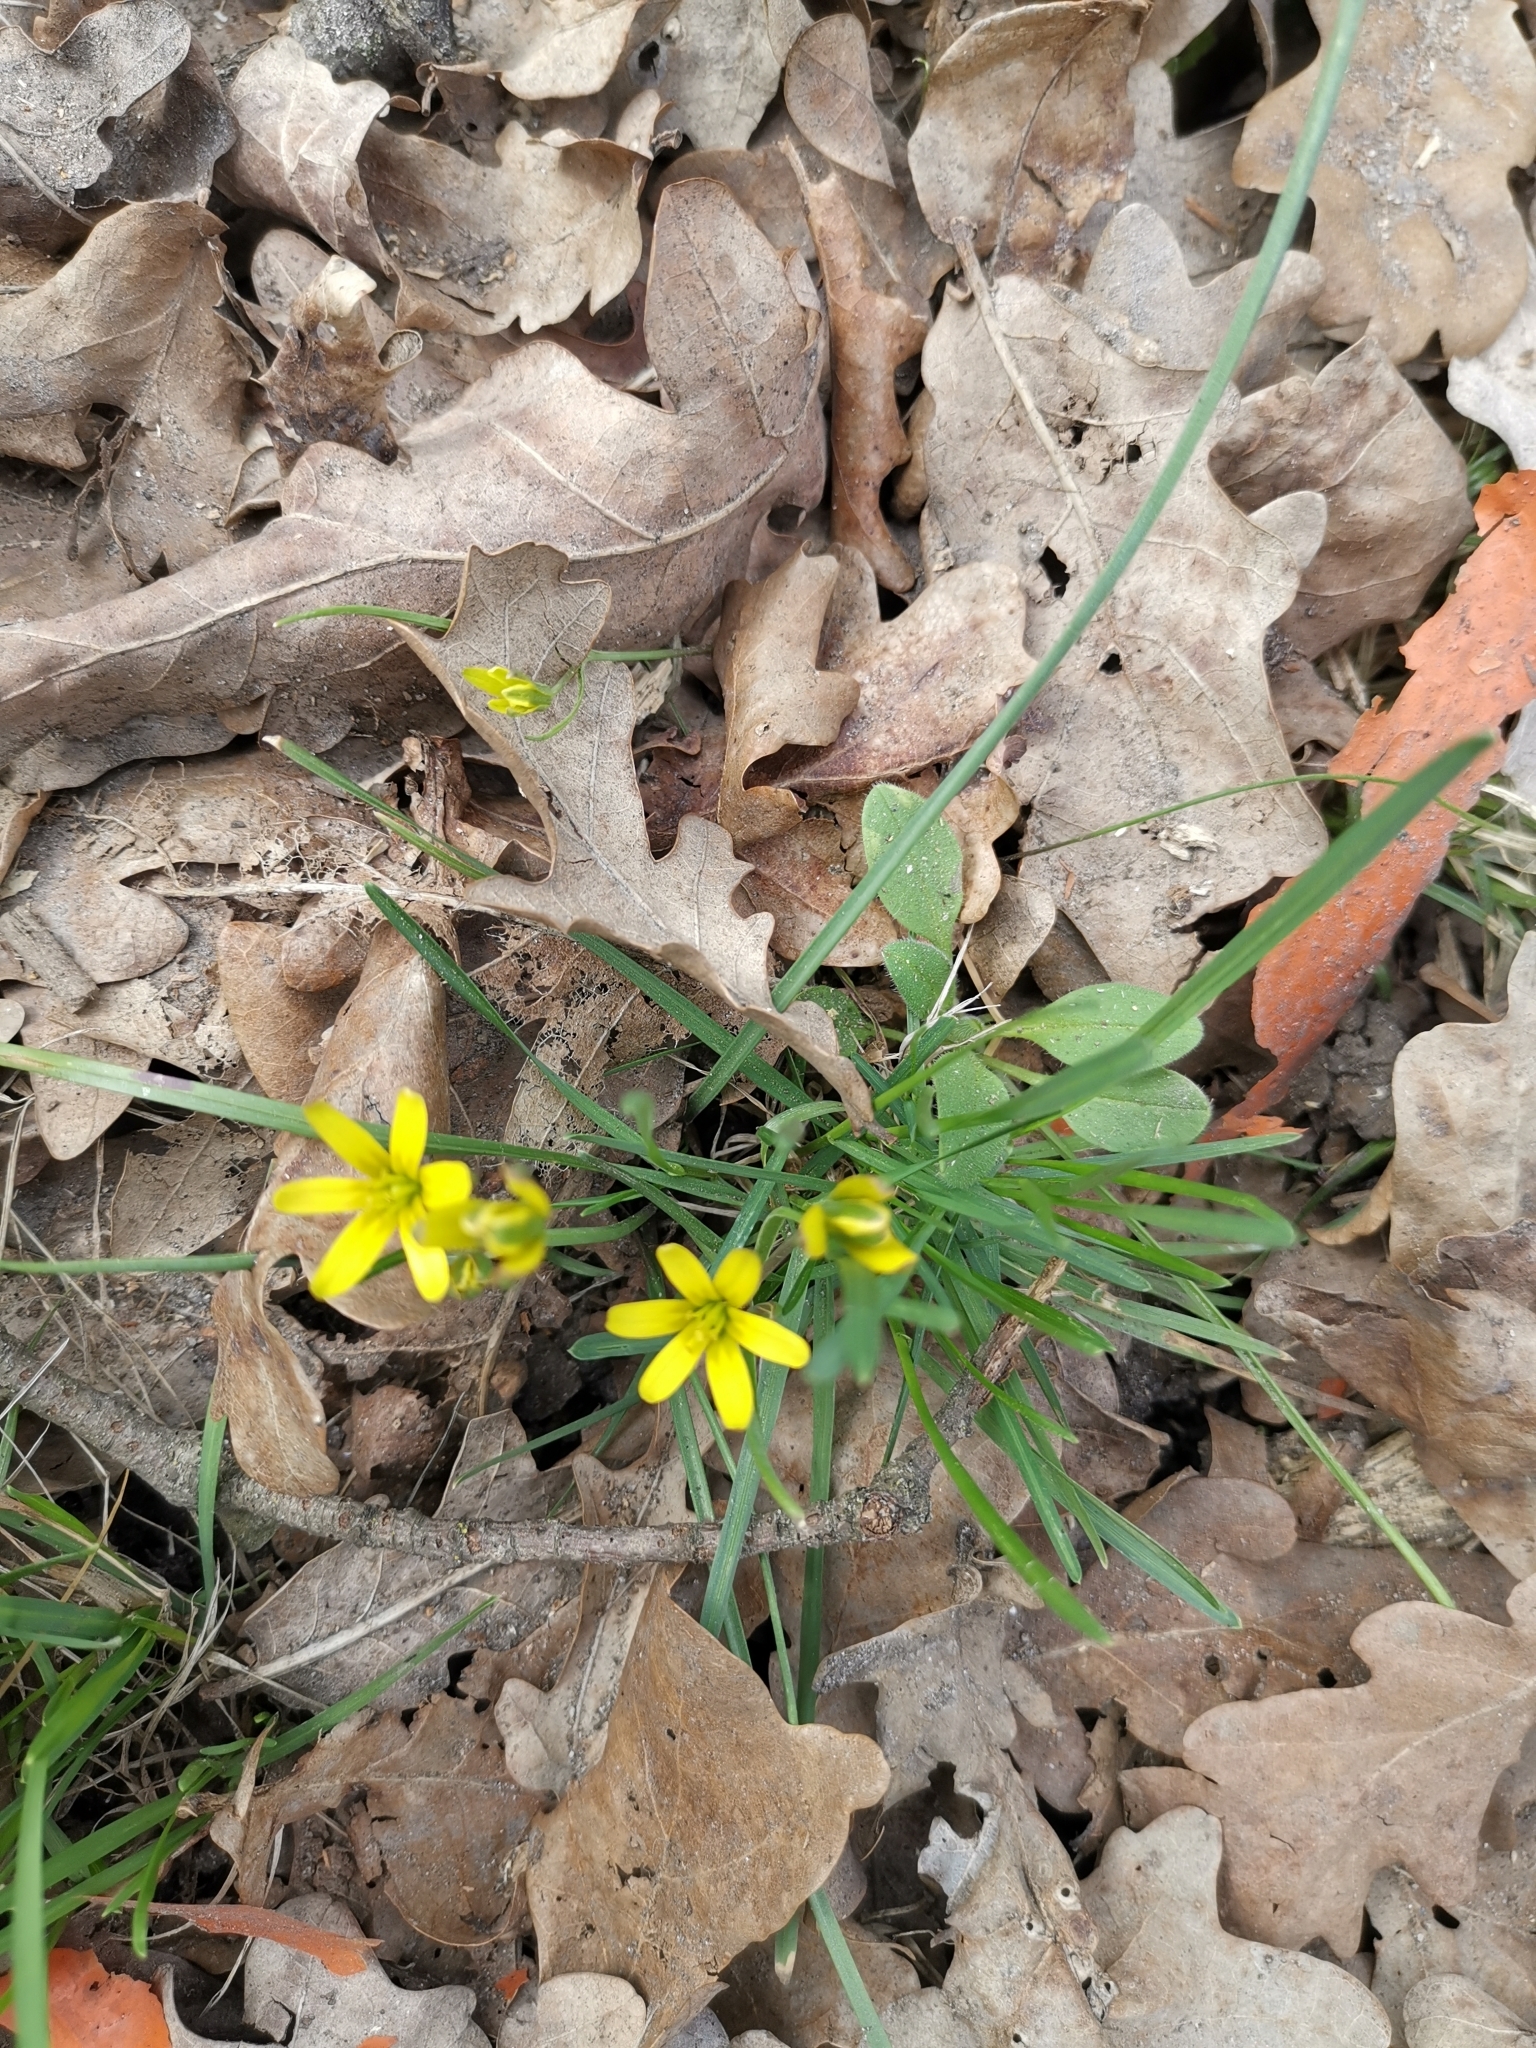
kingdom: Plantae
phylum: Tracheophyta
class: Liliopsida
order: Liliales
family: Liliaceae
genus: Gagea
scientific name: Gagea pusilla
